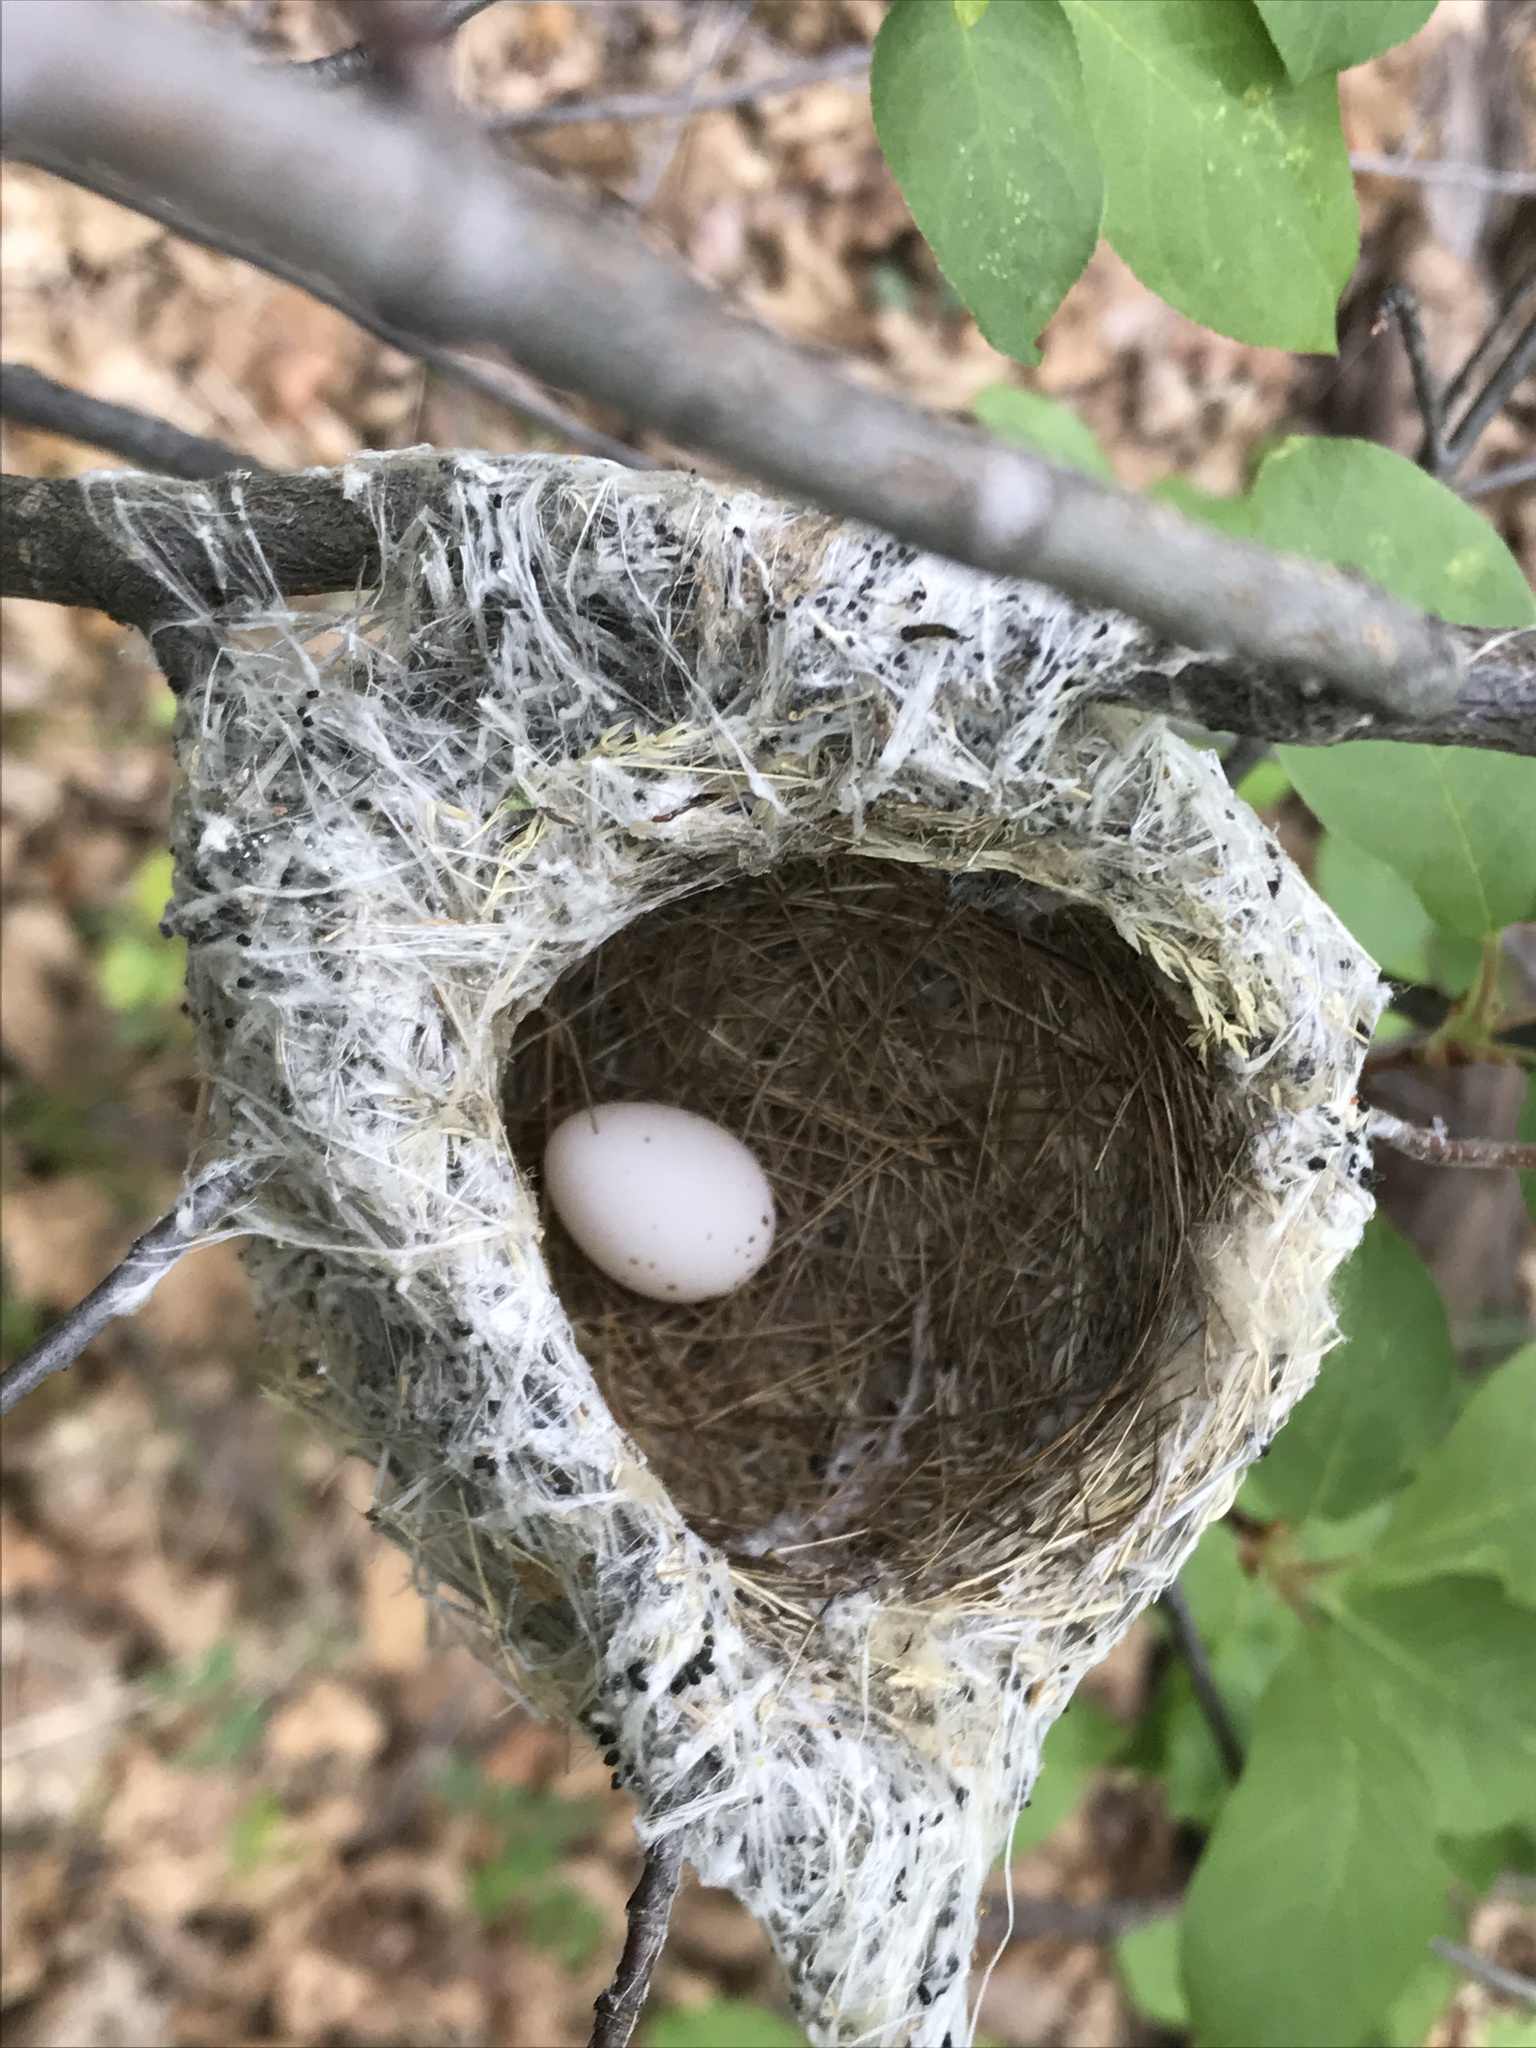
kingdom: Animalia
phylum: Chordata
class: Aves
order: Passeriformes
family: Vireonidae
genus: Vireo
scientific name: Vireo plumbeus
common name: Plumbeous vireo
